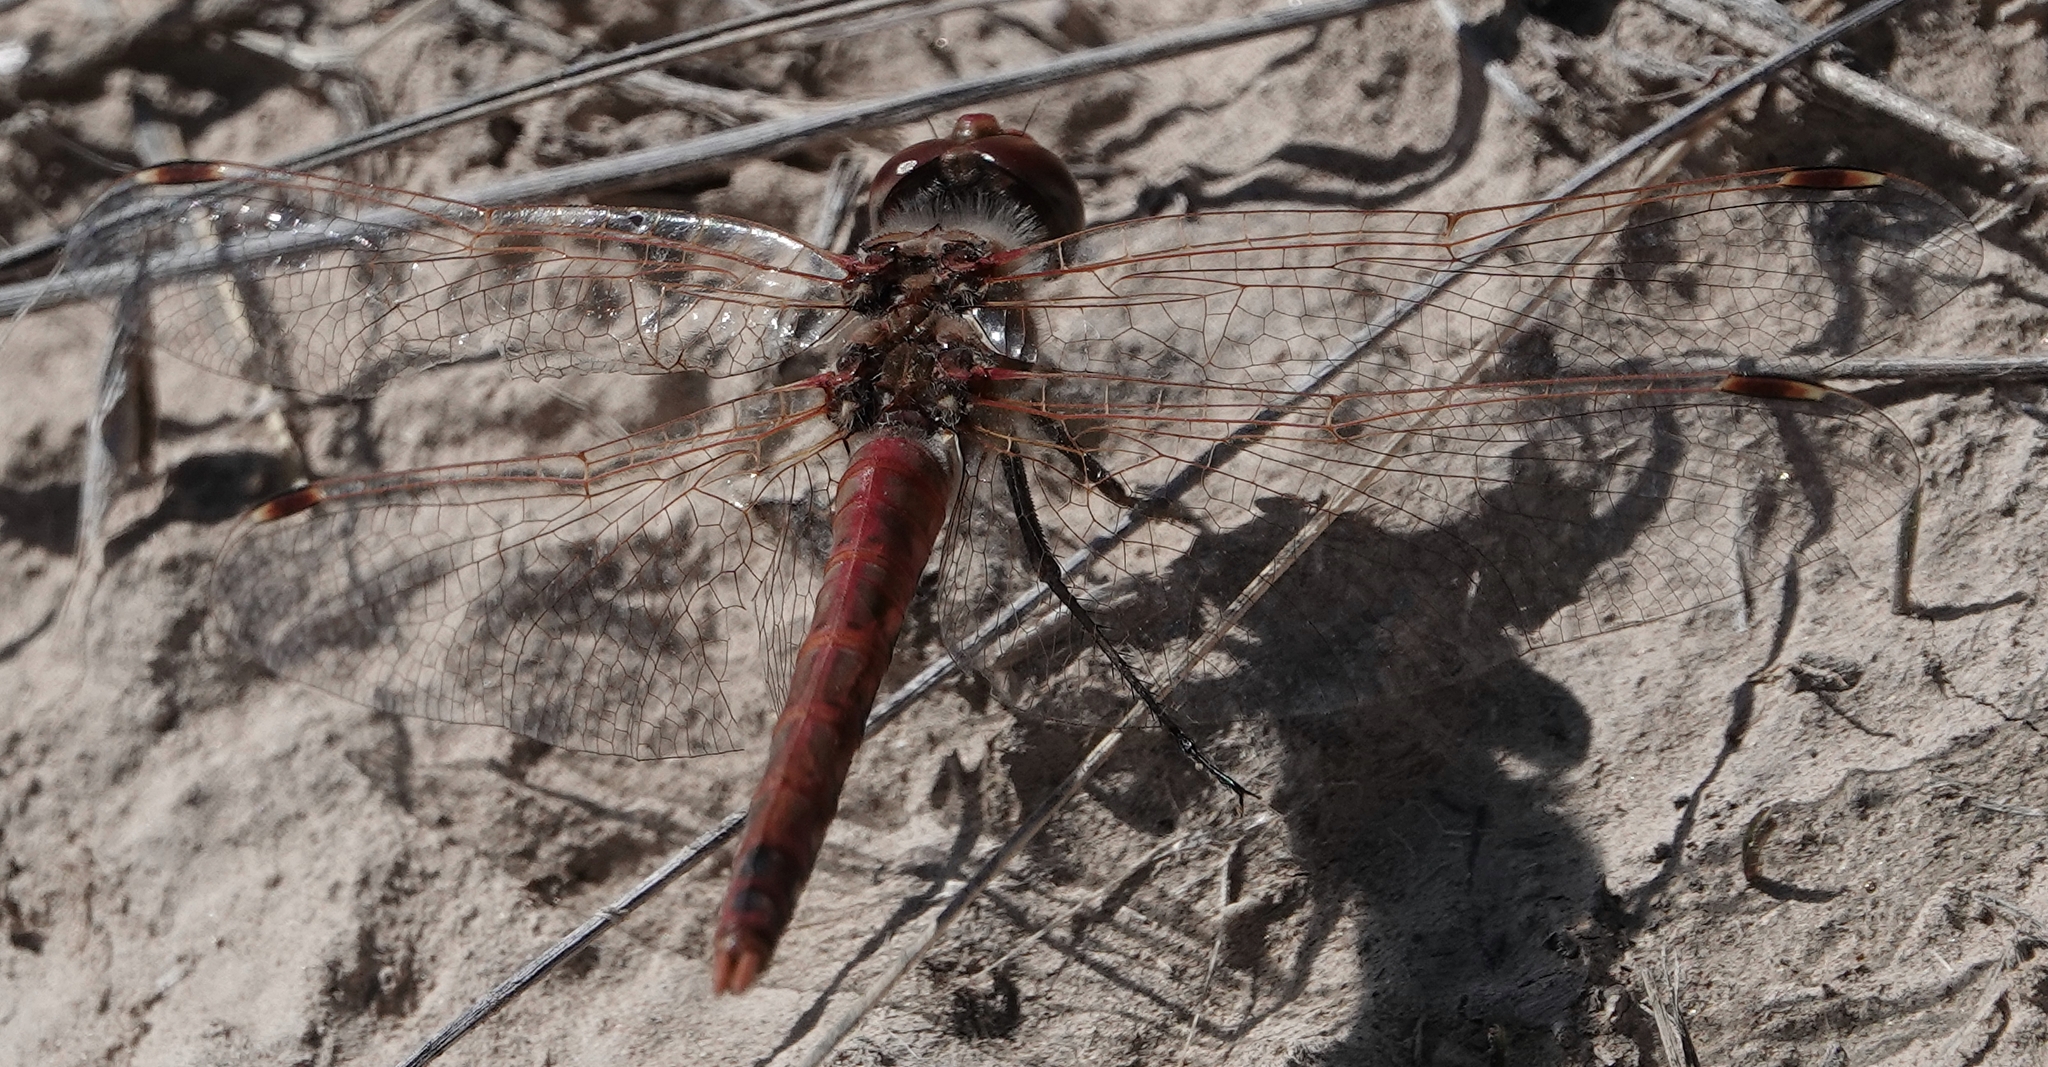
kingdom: Animalia
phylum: Arthropoda
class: Insecta
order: Odonata
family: Libellulidae
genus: Sympetrum
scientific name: Sympetrum corruptum
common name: Variegated meadowhawk
